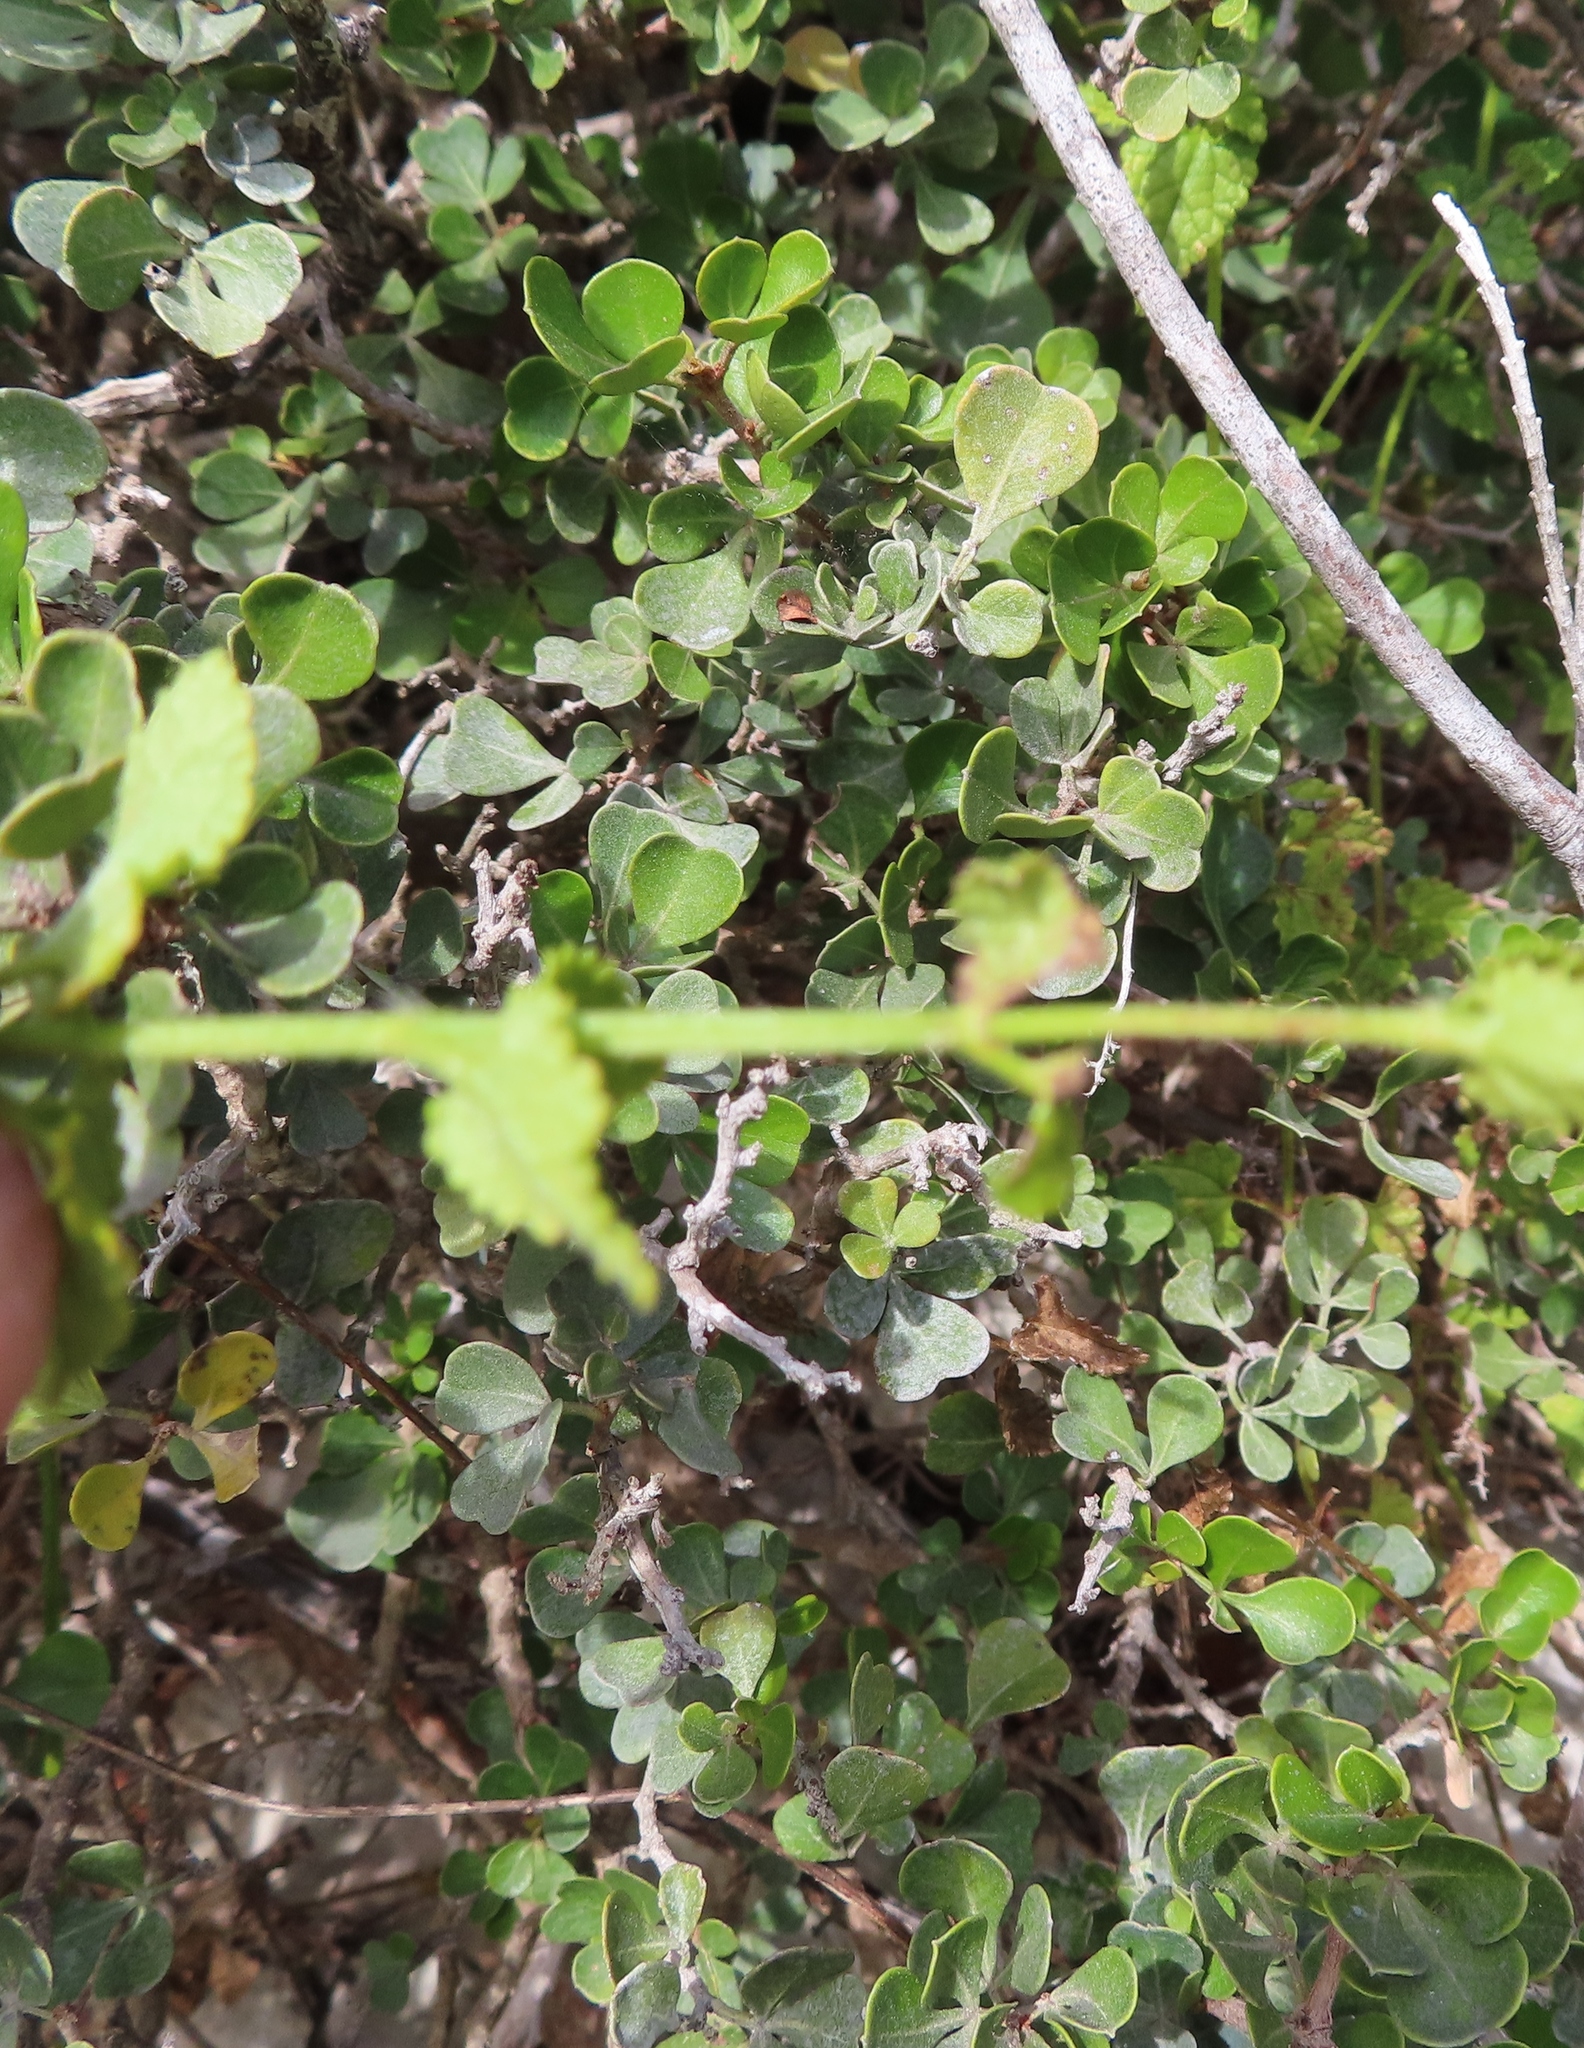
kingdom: Plantae
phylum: Tracheophyta
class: Magnoliopsida
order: Sapindales
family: Anacardiaceae
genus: Searsia
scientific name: Searsia glauca
